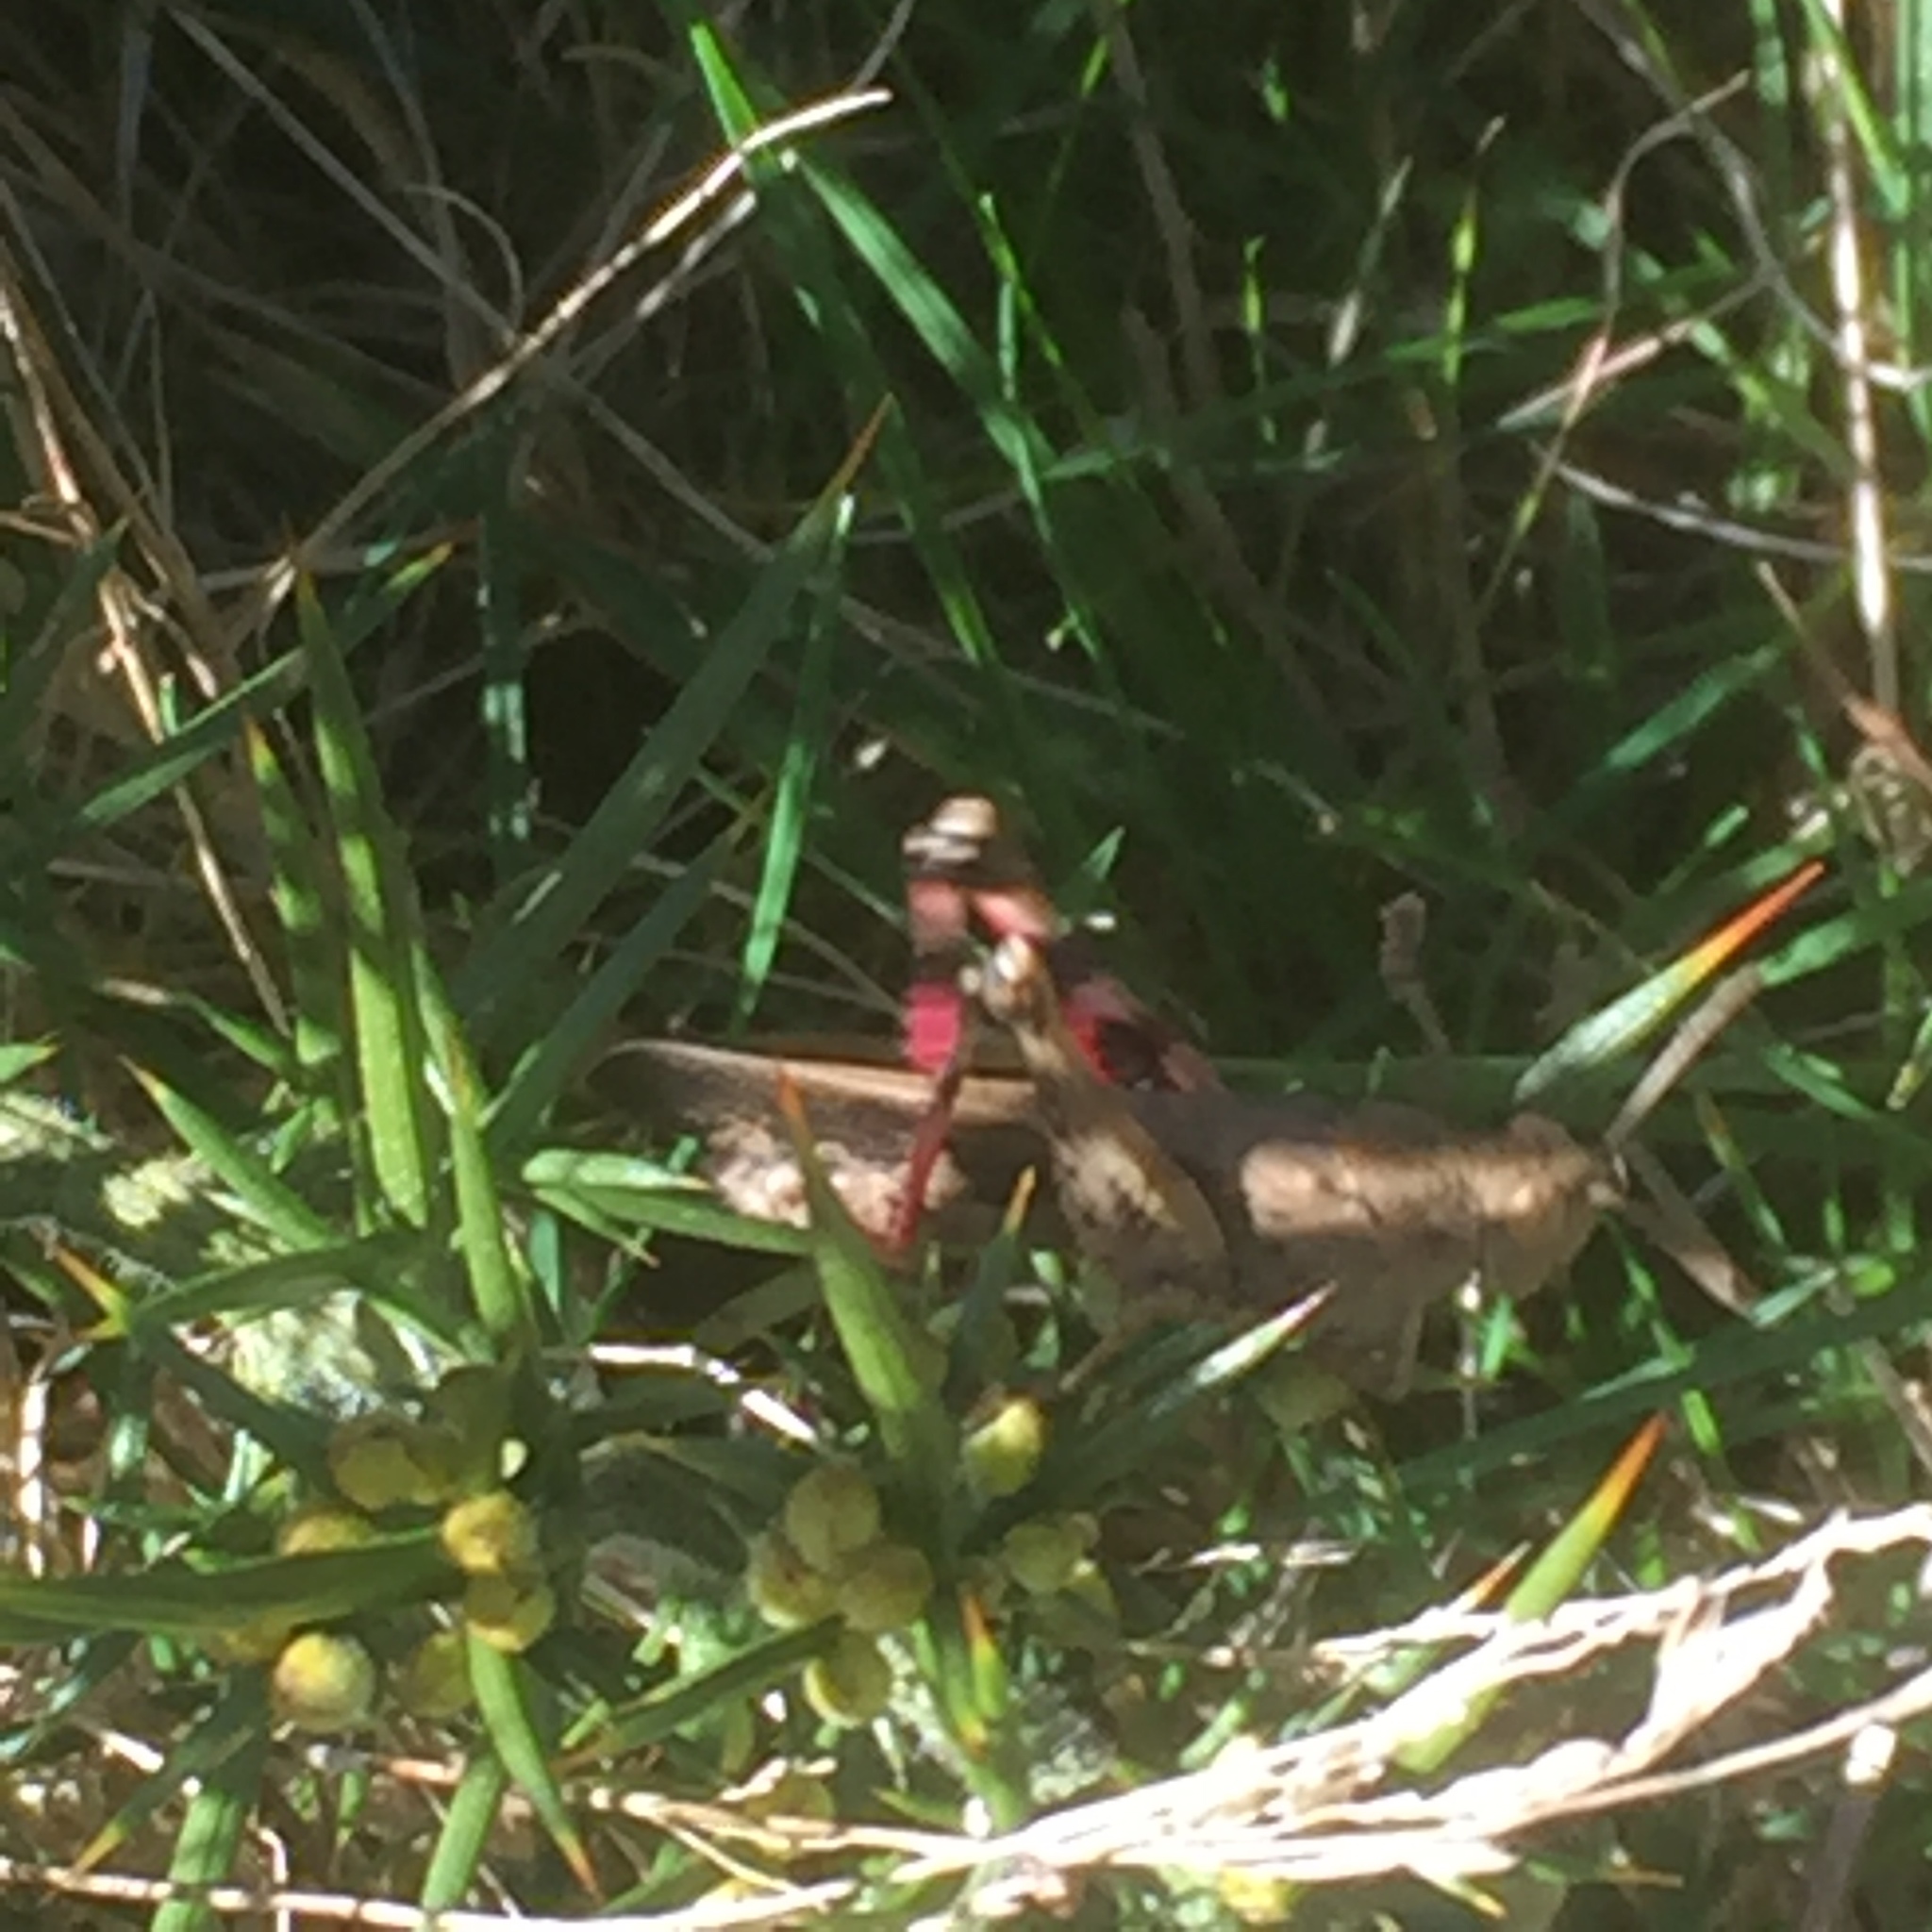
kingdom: Animalia
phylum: Arthropoda
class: Insecta
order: Orthoptera
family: Acrididae
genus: Aiolopus
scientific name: Aiolopus strepens
